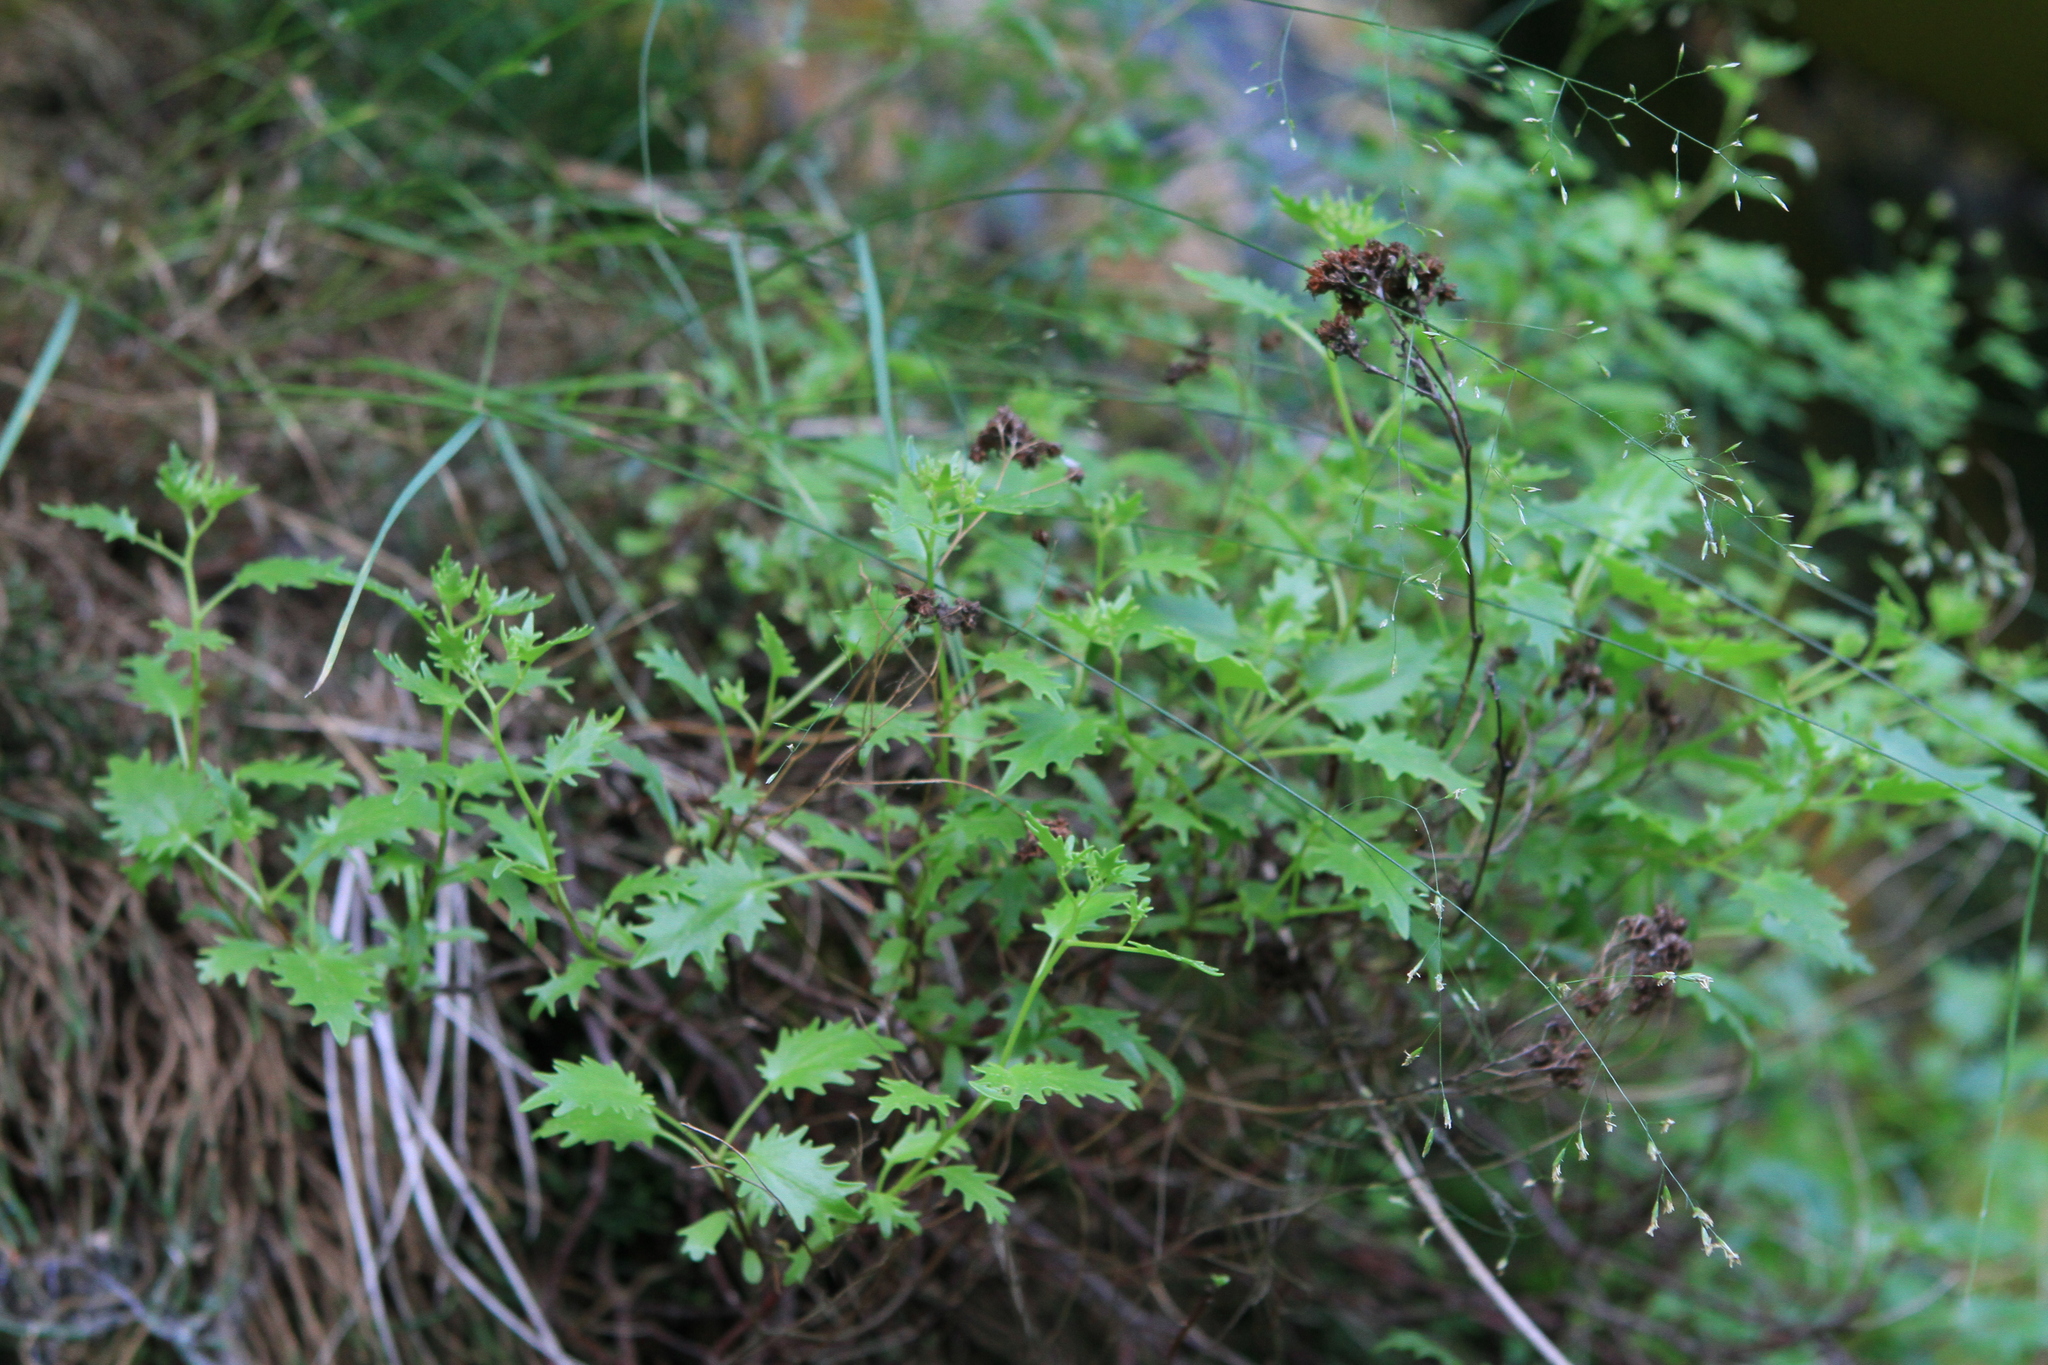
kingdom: Plantae
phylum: Tracheophyta
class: Magnoliopsida
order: Saxifragales
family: Crassulaceae
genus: Hylotelephium
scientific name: Hylotelephium populifolium
